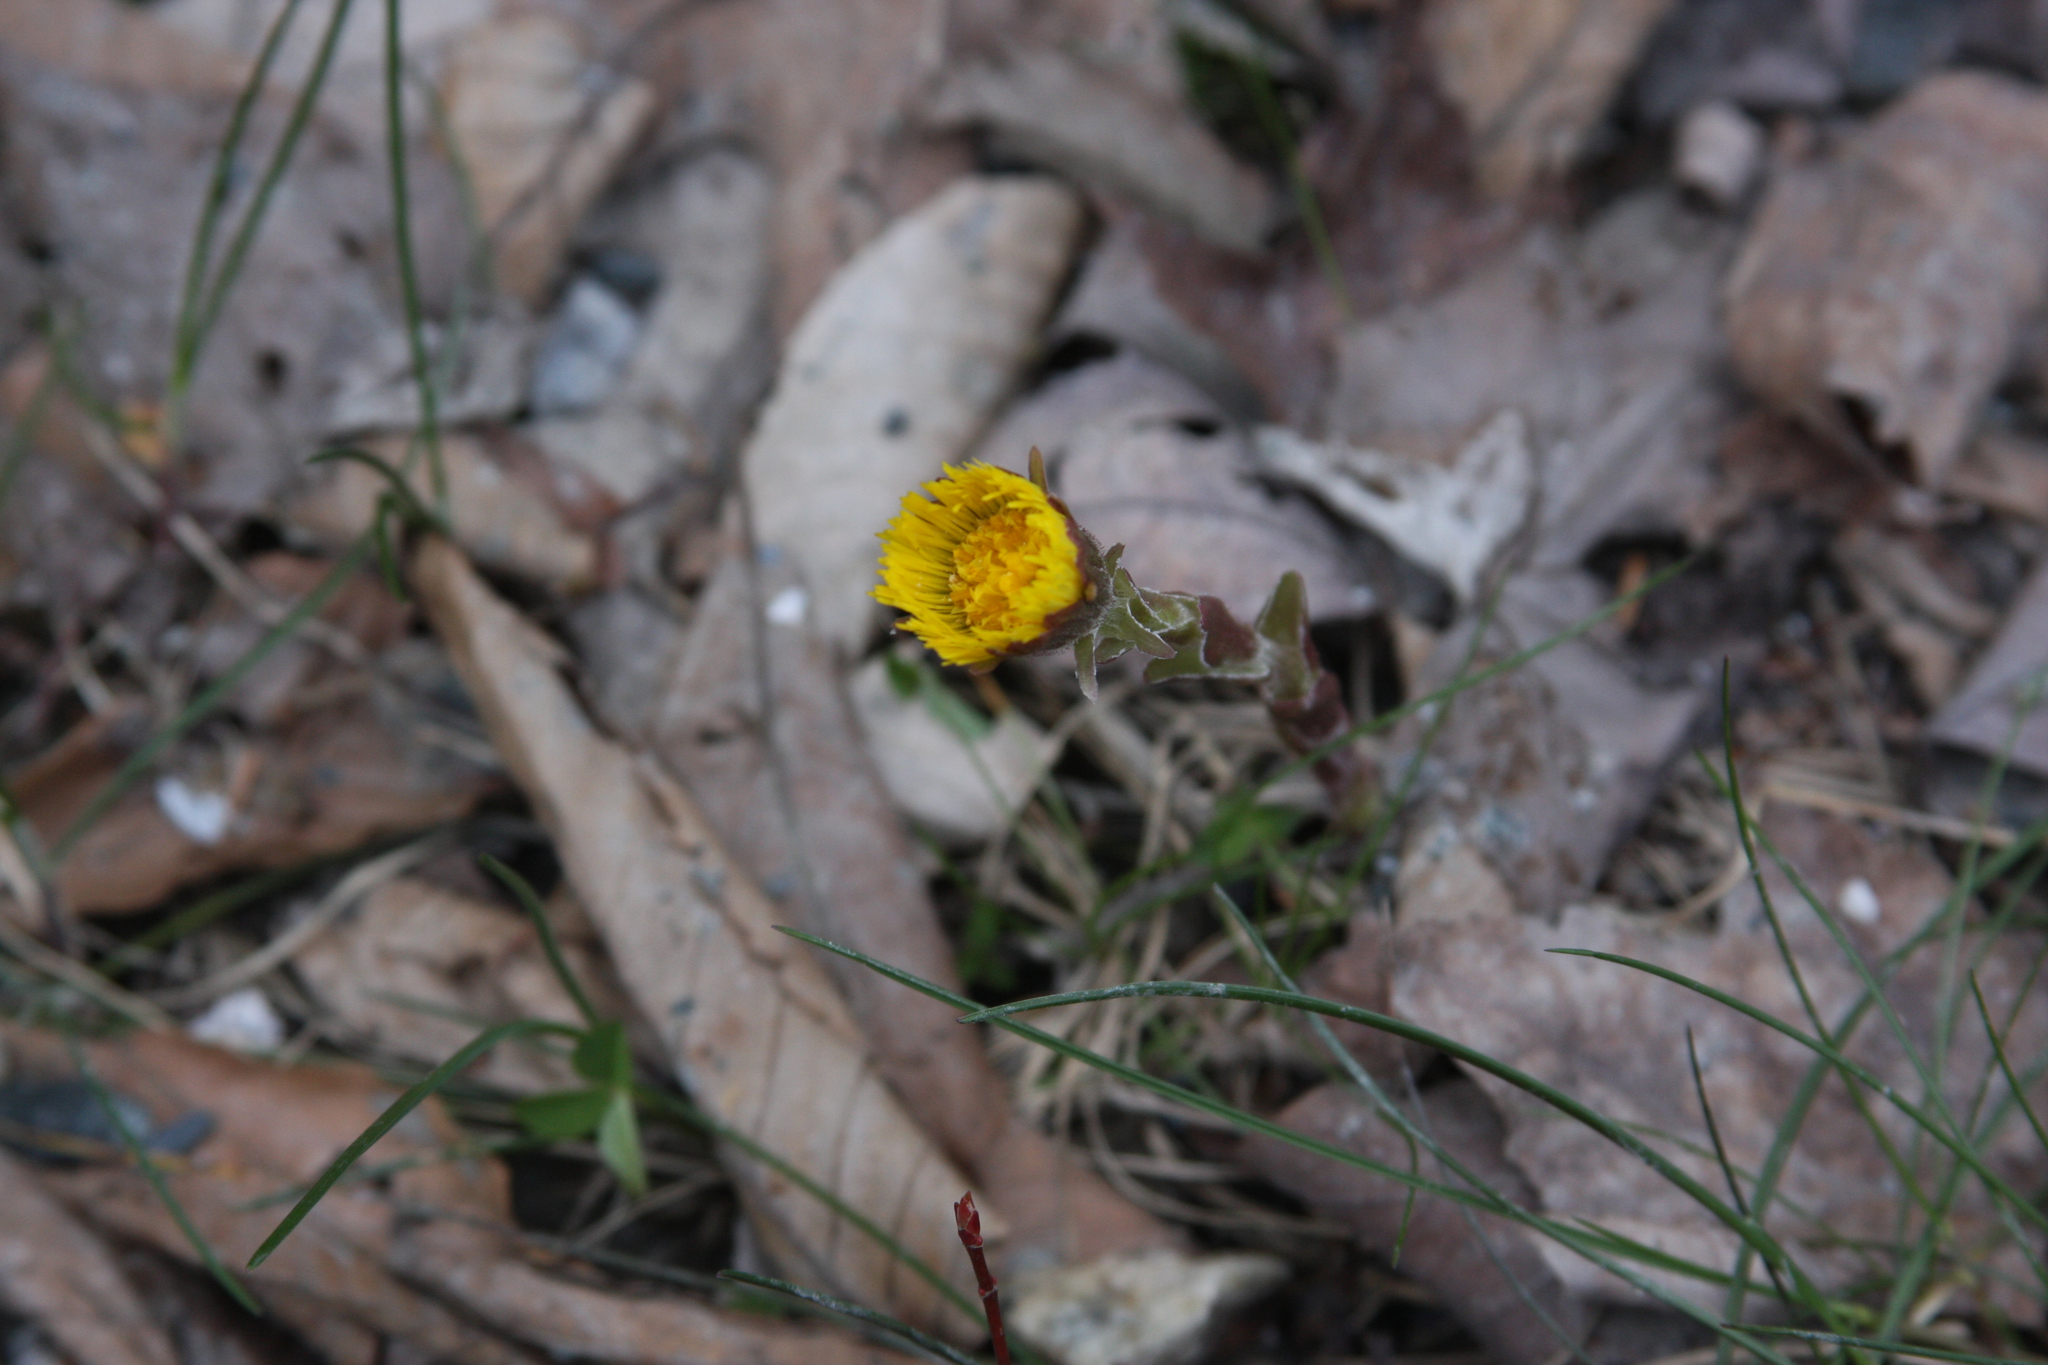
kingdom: Plantae
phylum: Tracheophyta
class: Magnoliopsida
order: Asterales
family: Asteraceae
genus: Tussilago
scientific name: Tussilago farfara
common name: Coltsfoot
